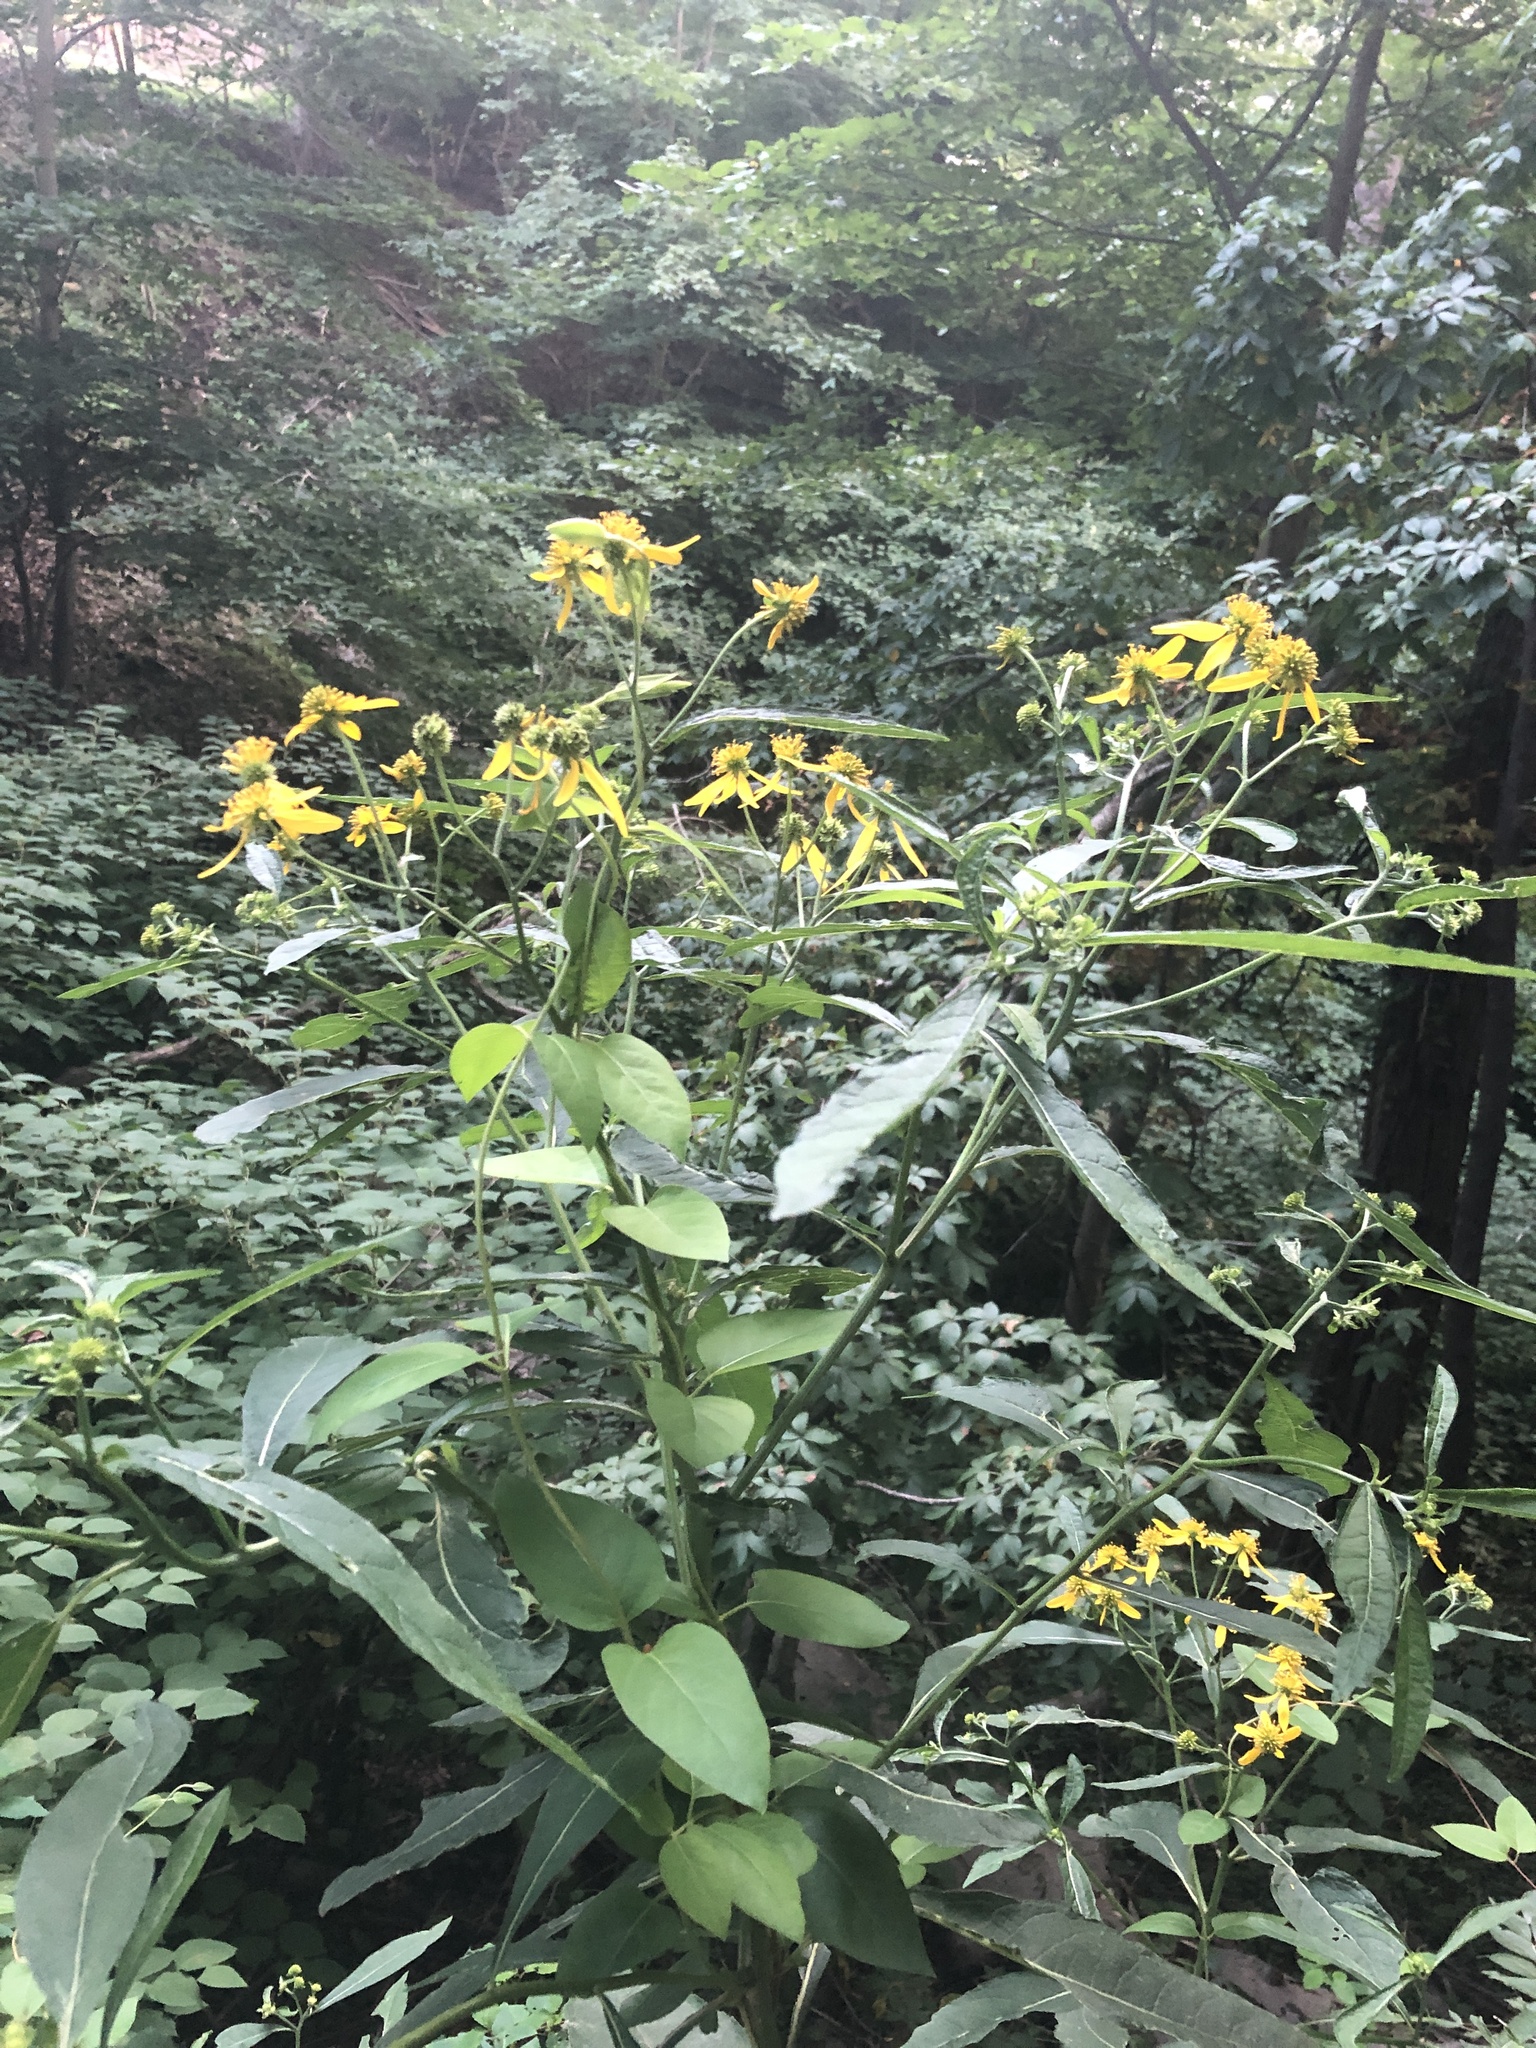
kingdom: Plantae
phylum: Tracheophyta
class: Magnoliopsida
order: Asterales
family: Asteraceae
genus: Verbesina
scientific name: Verbesina alternifolia
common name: Wingstem
